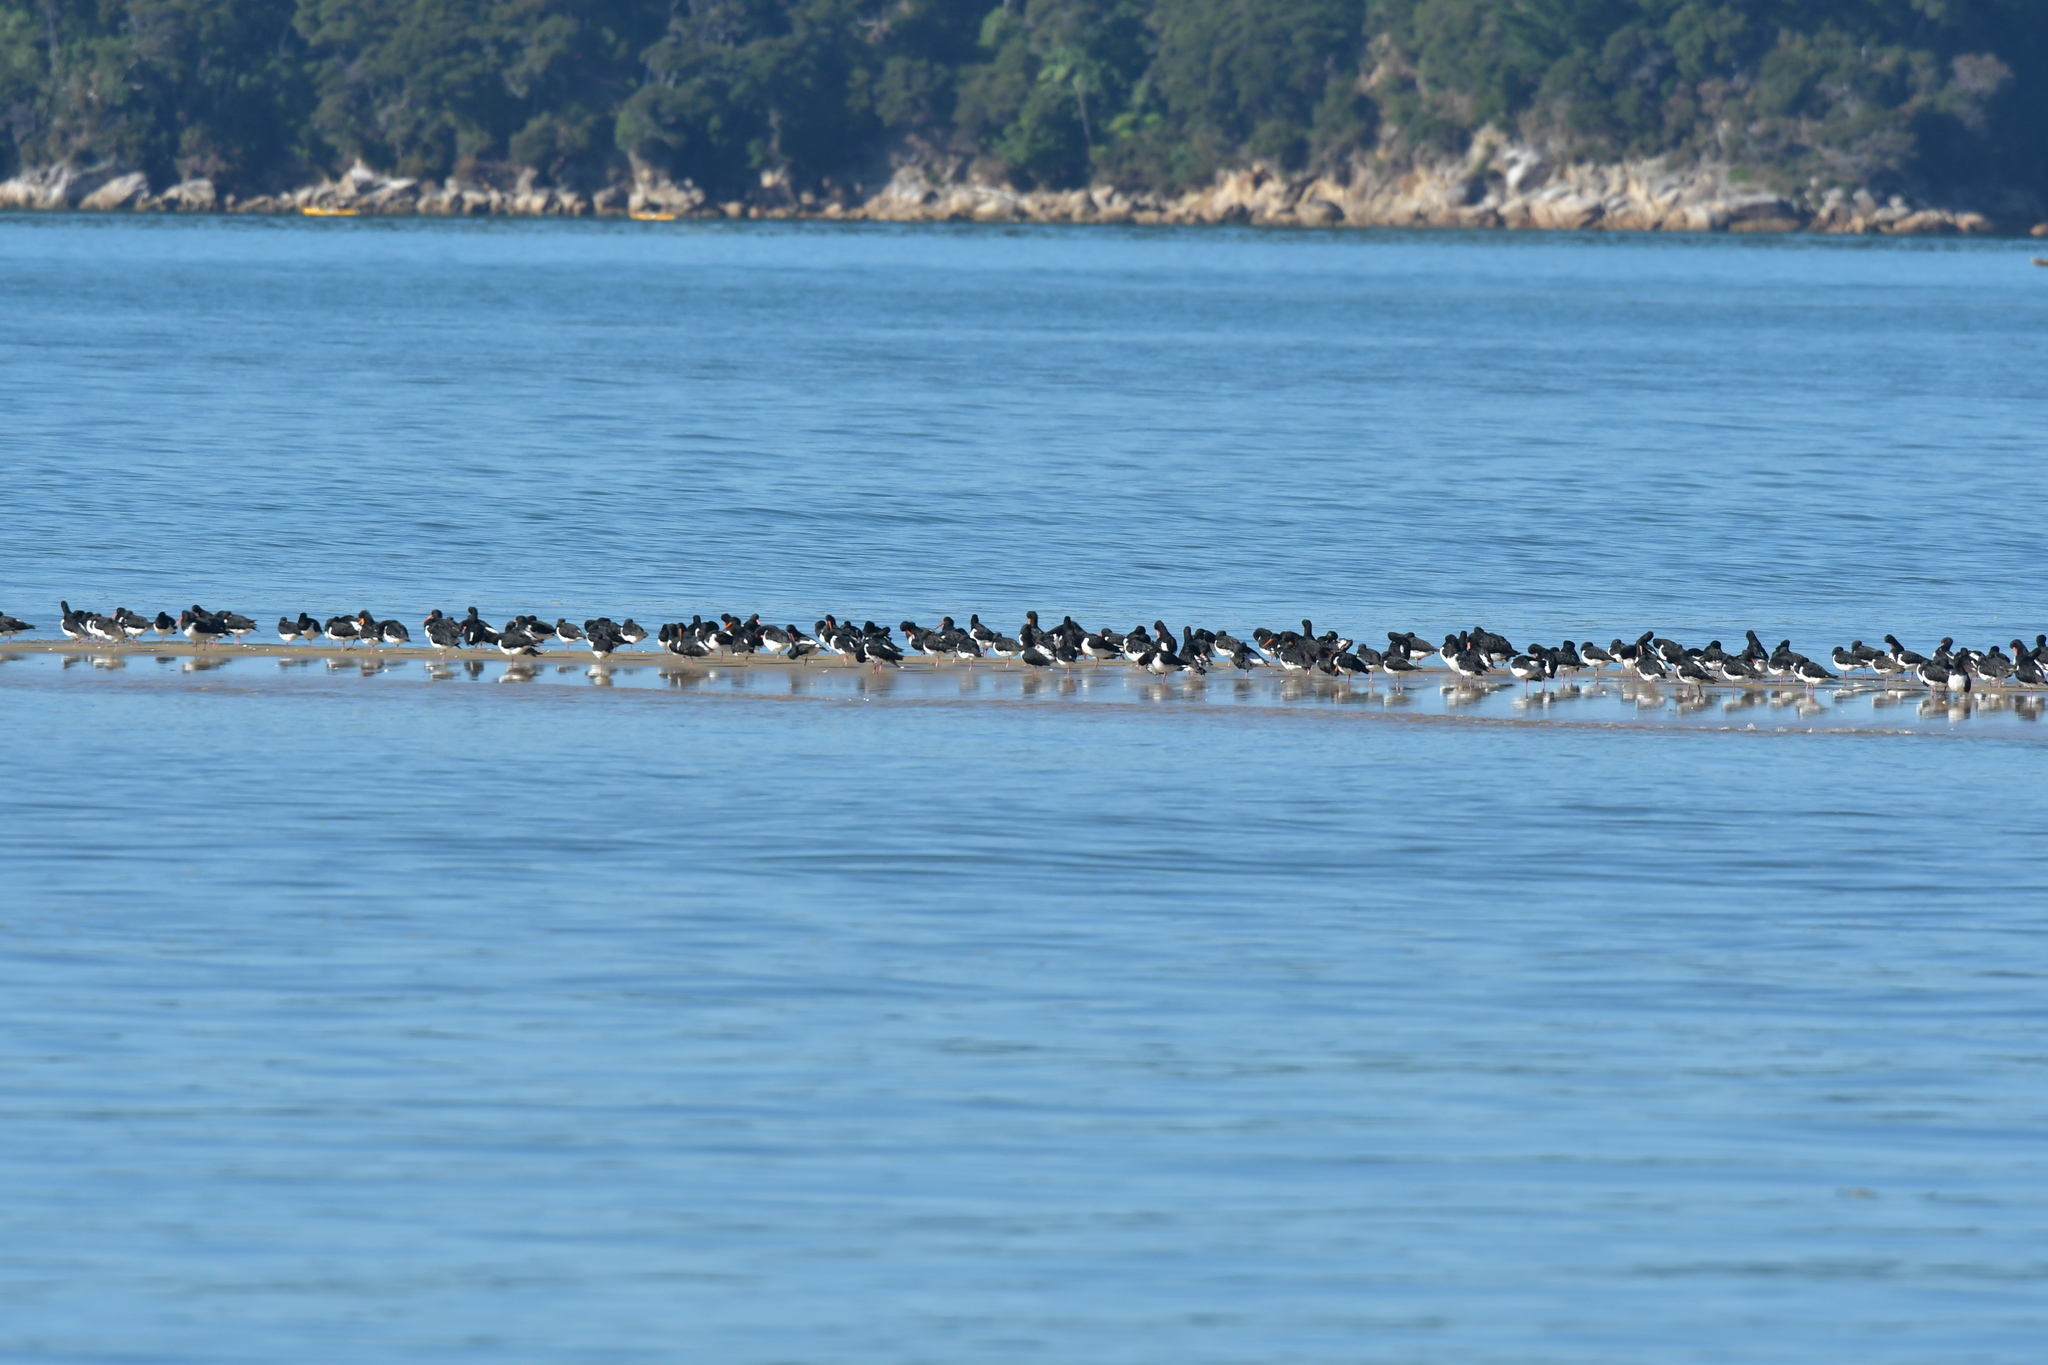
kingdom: Animalia
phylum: Chordata
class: Aves
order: Charadriiformes
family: Haematopodidae
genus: Haematopus
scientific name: Haematopus finschi
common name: South island oystercatcher
